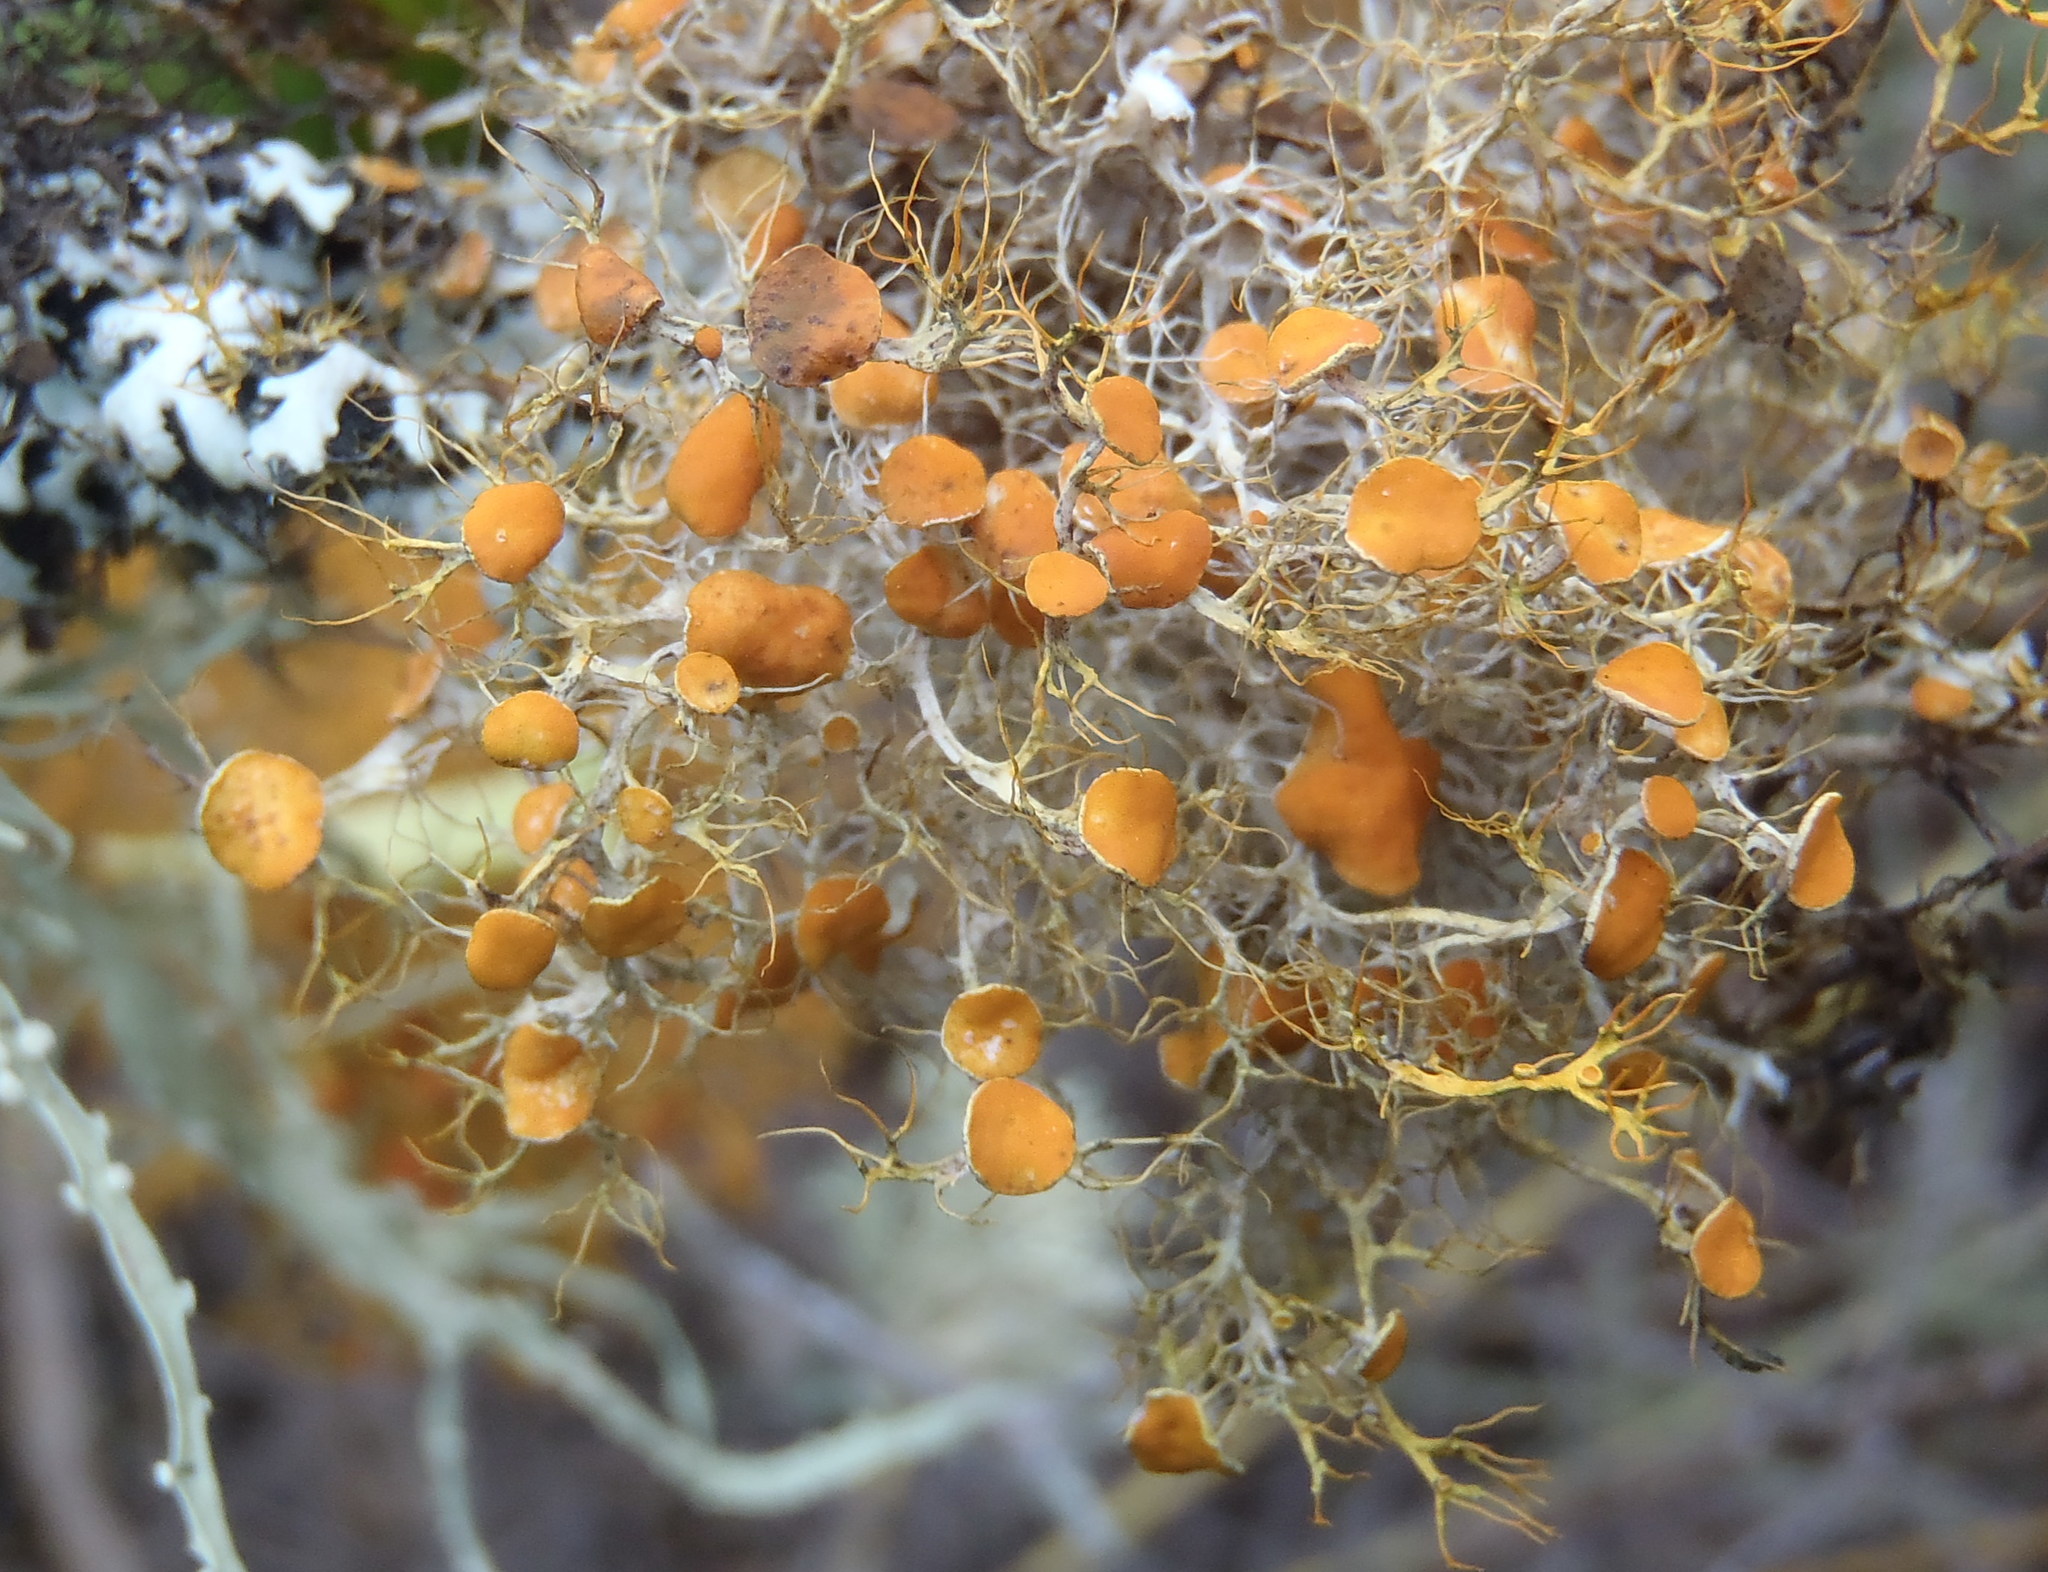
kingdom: Fungi
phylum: Ascomycota
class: Lecanoromycetes
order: Teloschistales
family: Teloschistaceae
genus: Teloschistes
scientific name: Teloschistes pulvinaris
